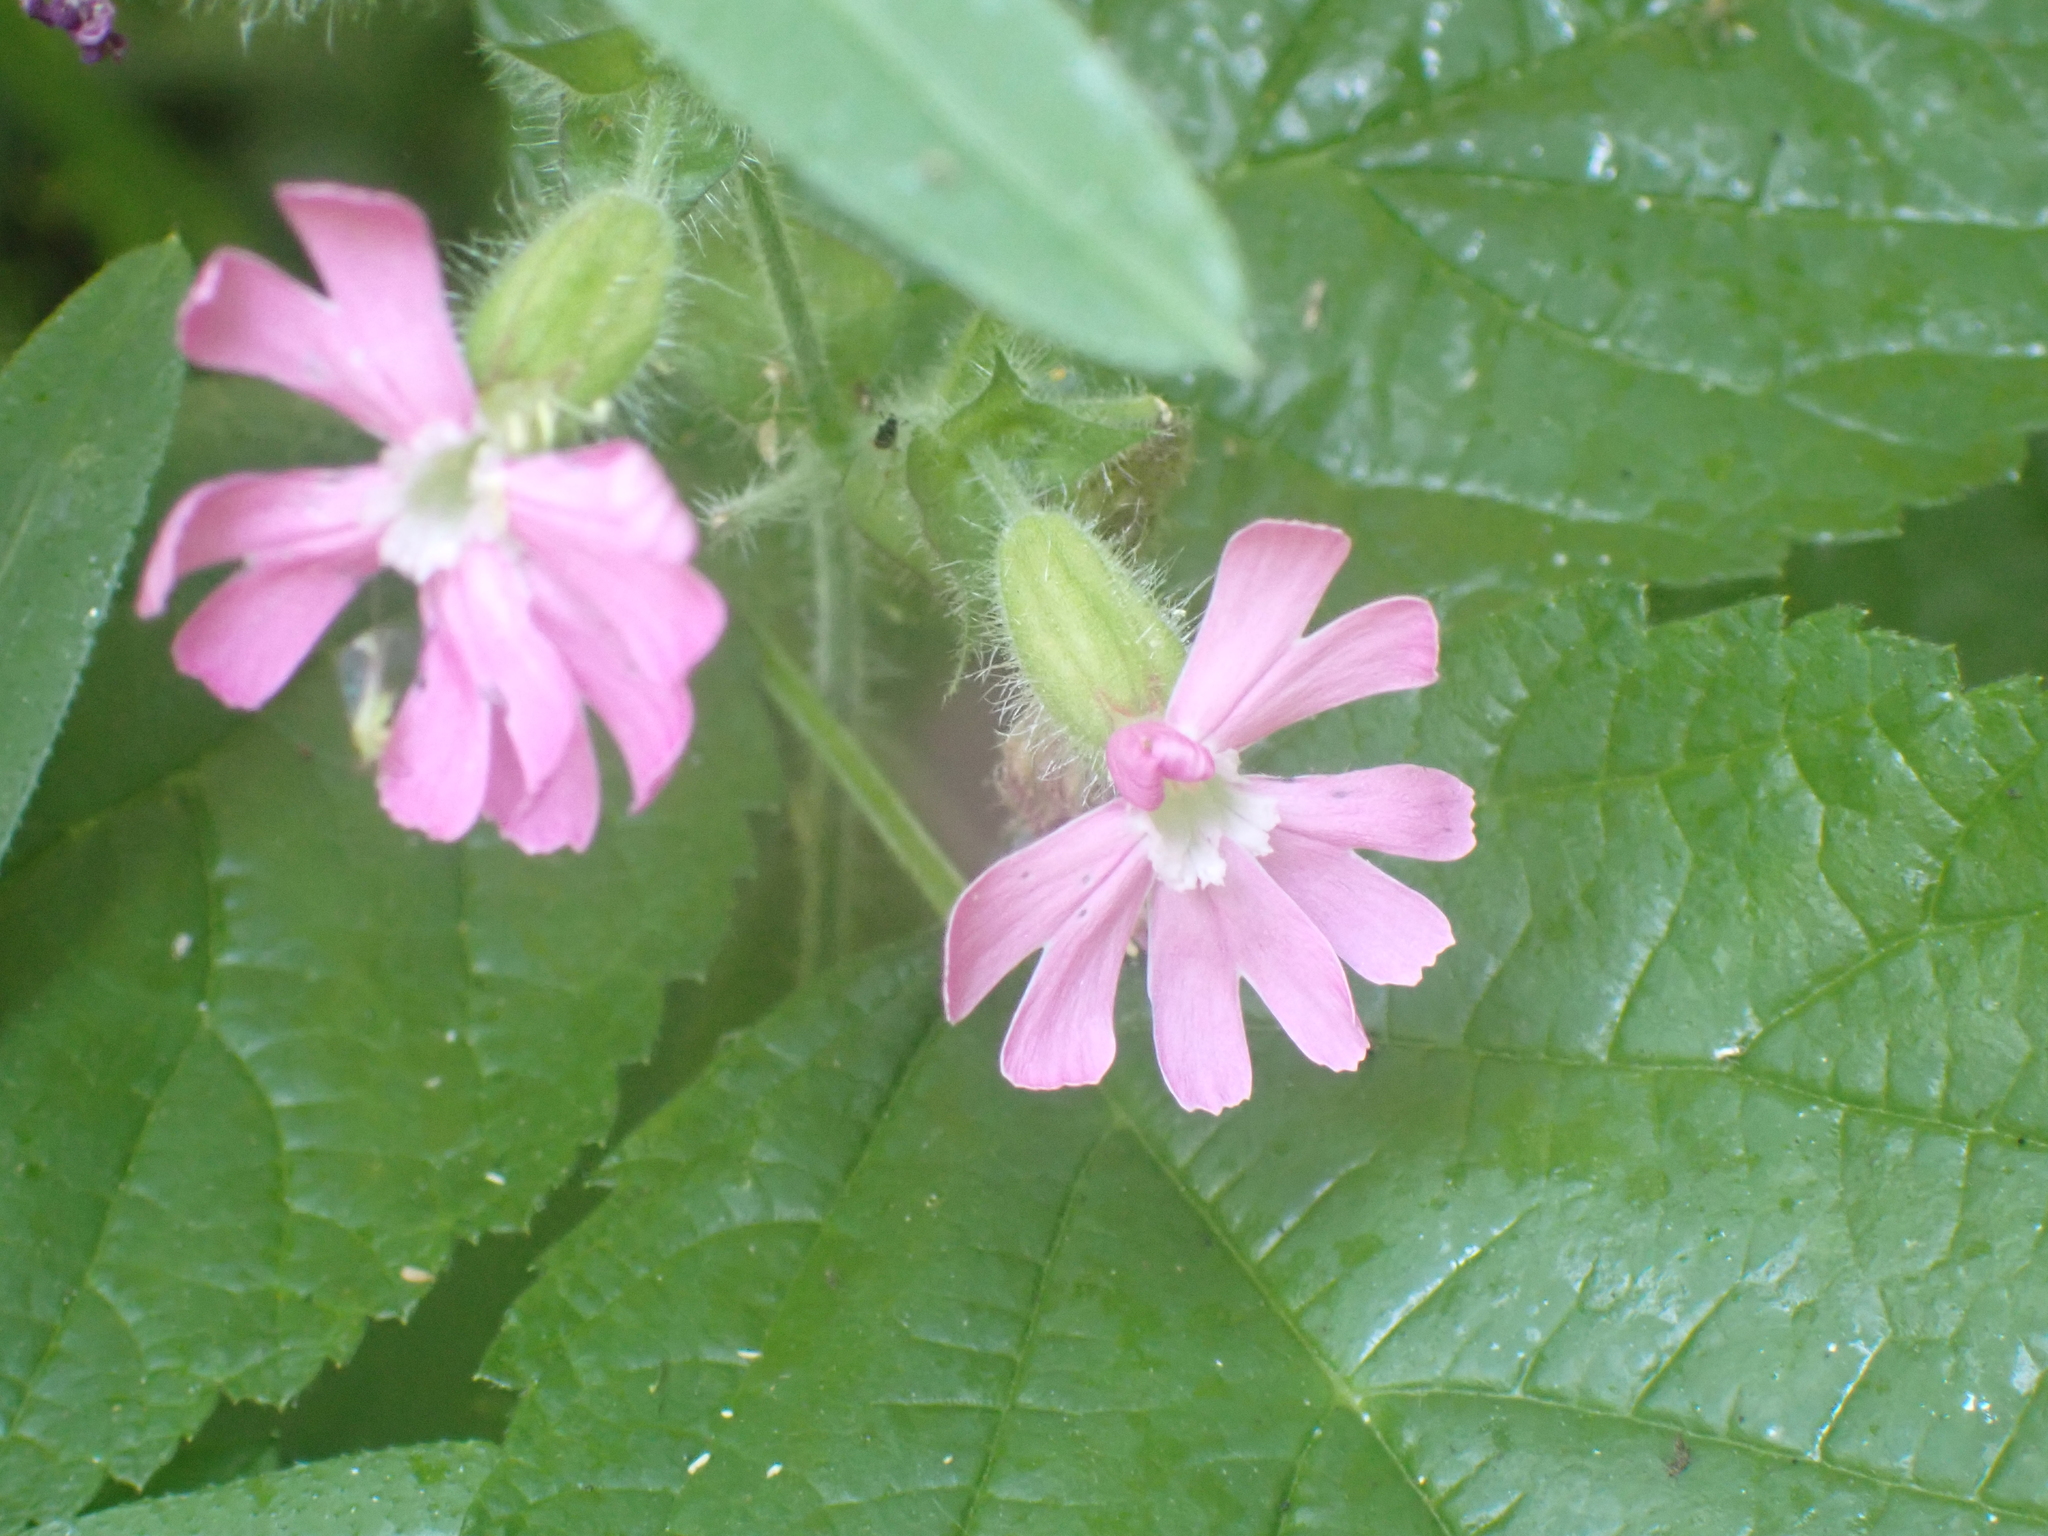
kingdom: Plantae
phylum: Tracheophyta
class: Magnoliopsida
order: Caryophyllales
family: Caryophyllaceae
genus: Silene
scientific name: Silene dioica
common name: Red campion
